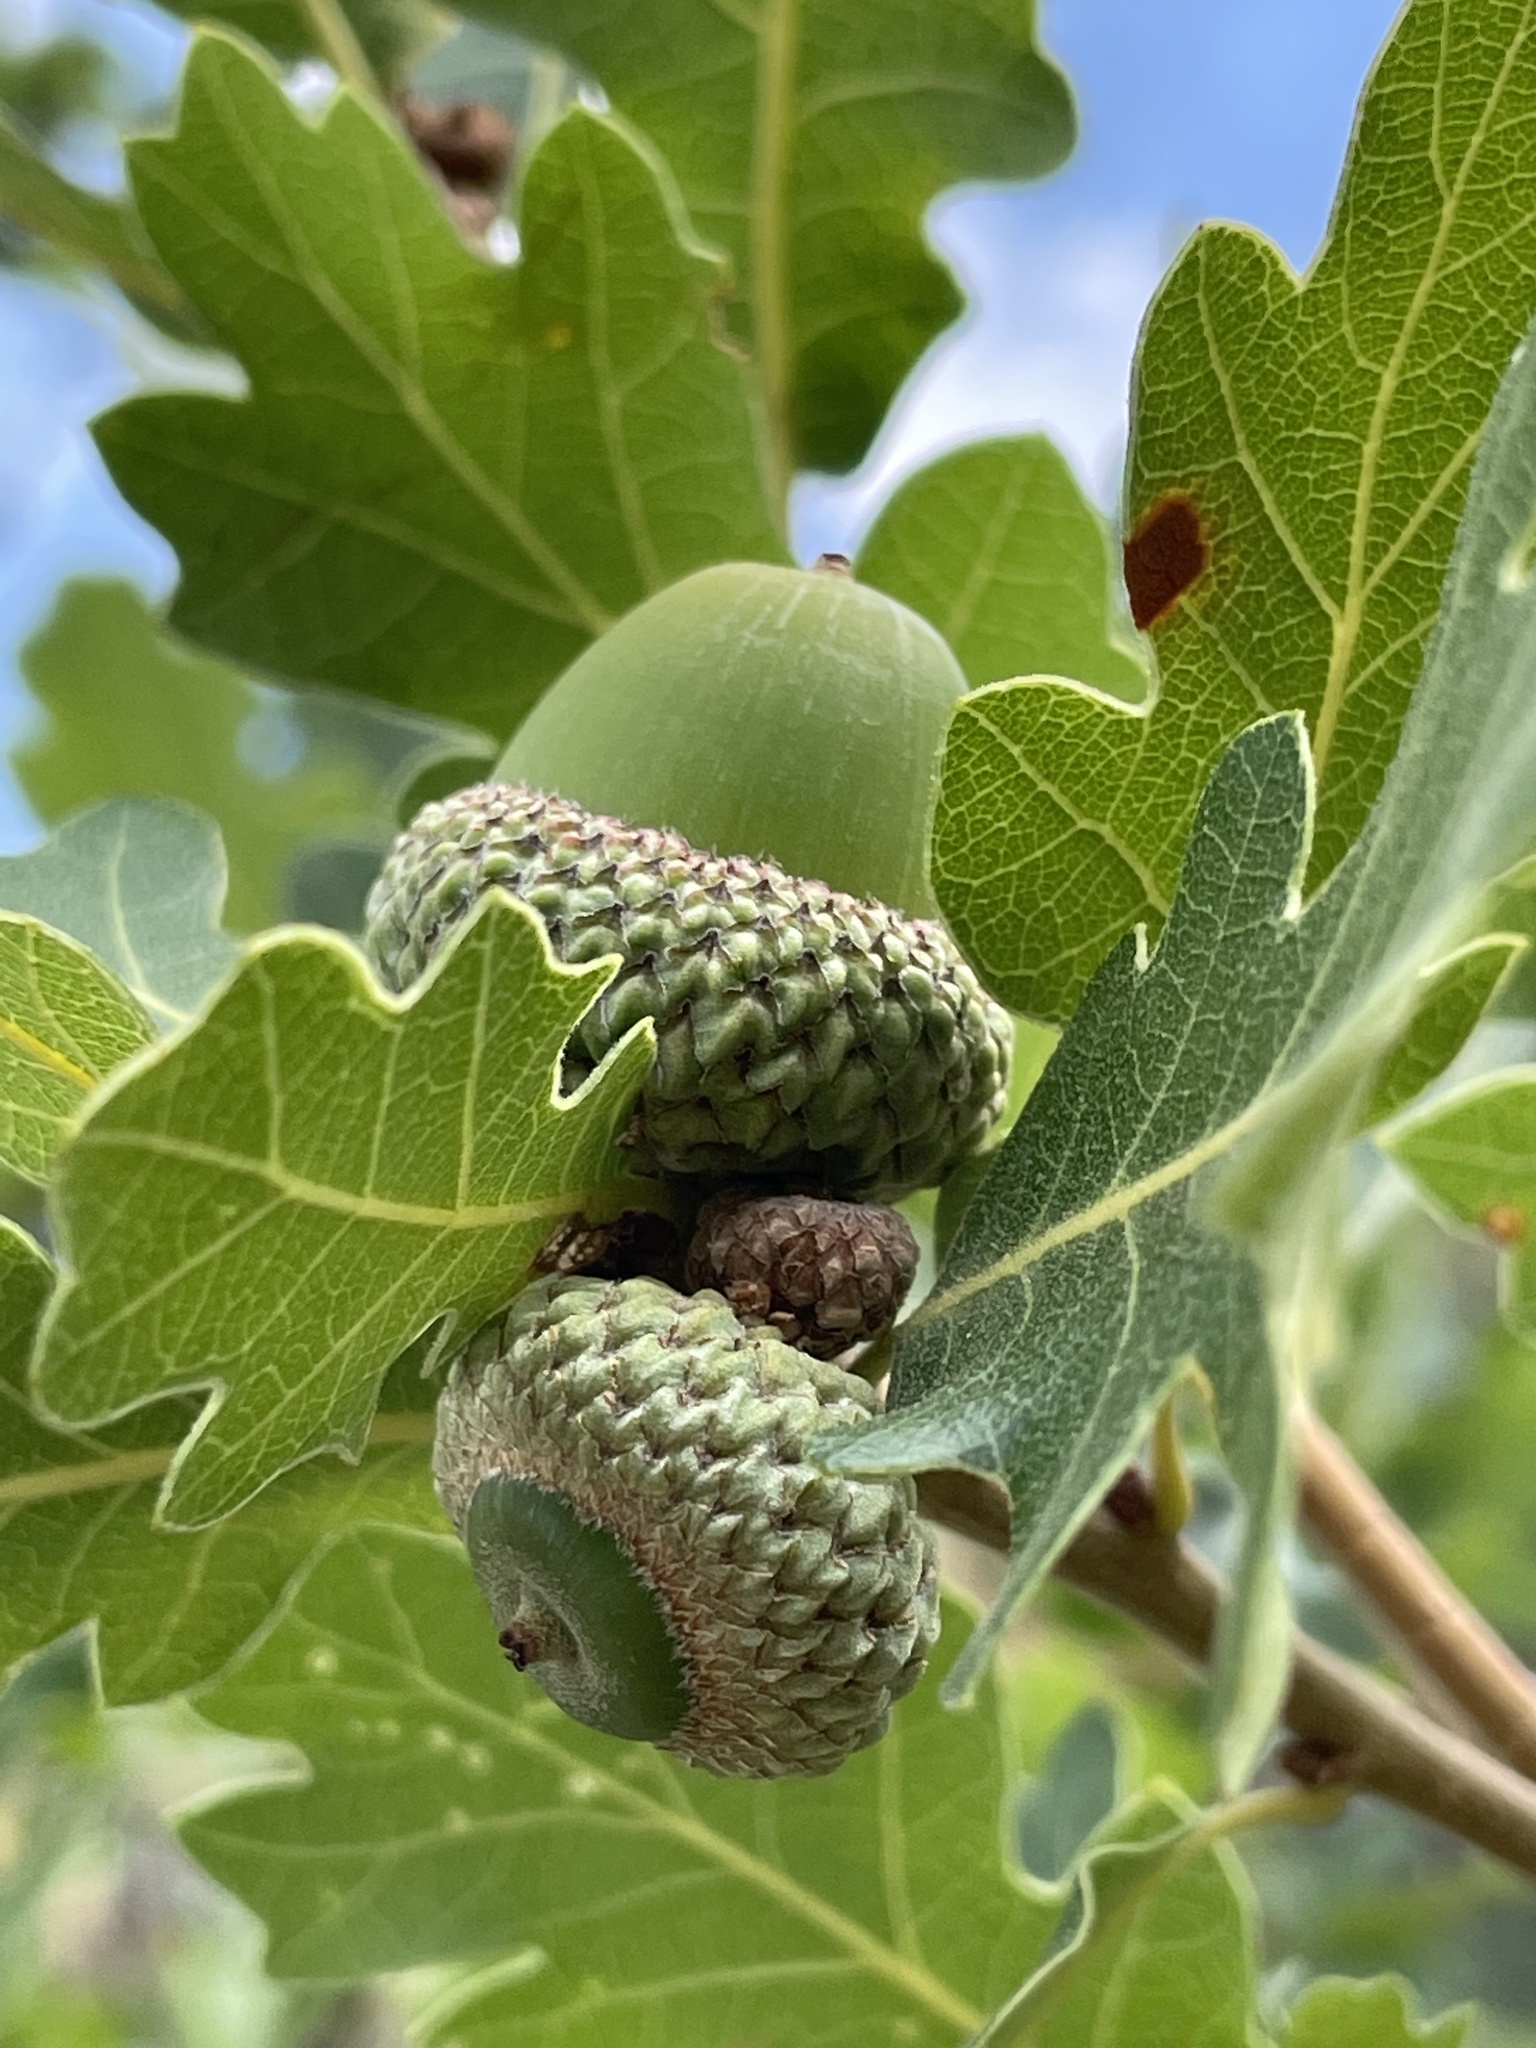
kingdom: Plantae
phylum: Tracheophyta
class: Magnoliopsida
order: Fagales
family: Fagaceae
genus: Quercus
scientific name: Quercus gambelii
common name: Gambel oak
